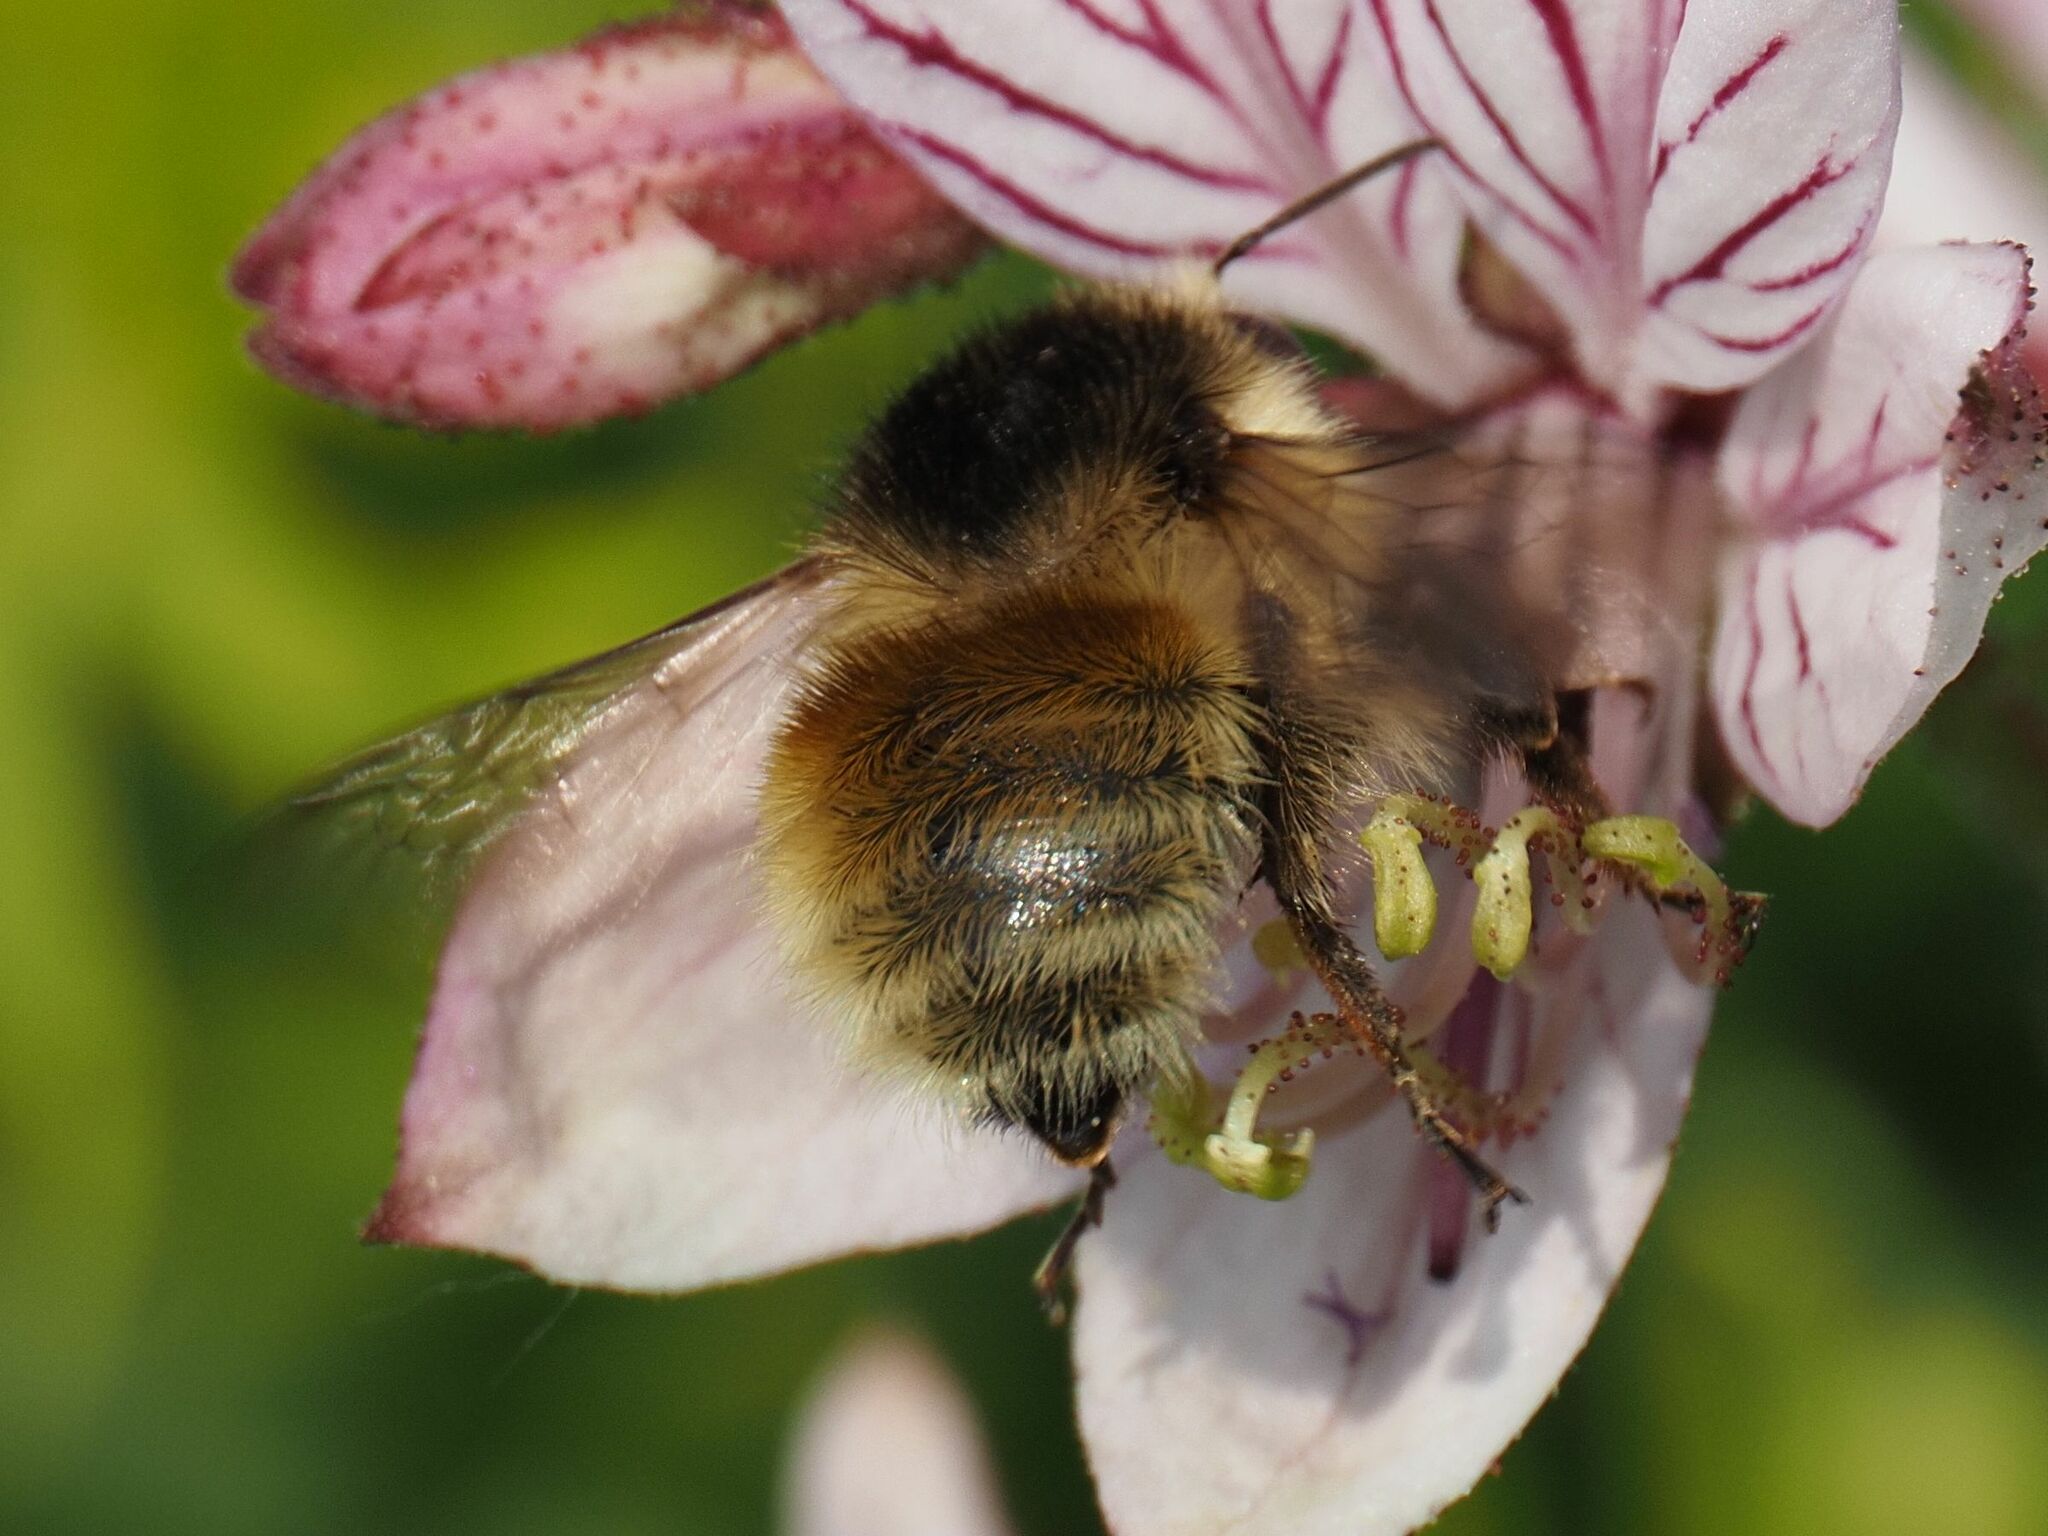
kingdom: Animalia
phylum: Arthropoda
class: Insecta
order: Hymenoptera
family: Apidae
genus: Bombus
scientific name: Bombus humilis
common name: Brown-banded carder-bee
